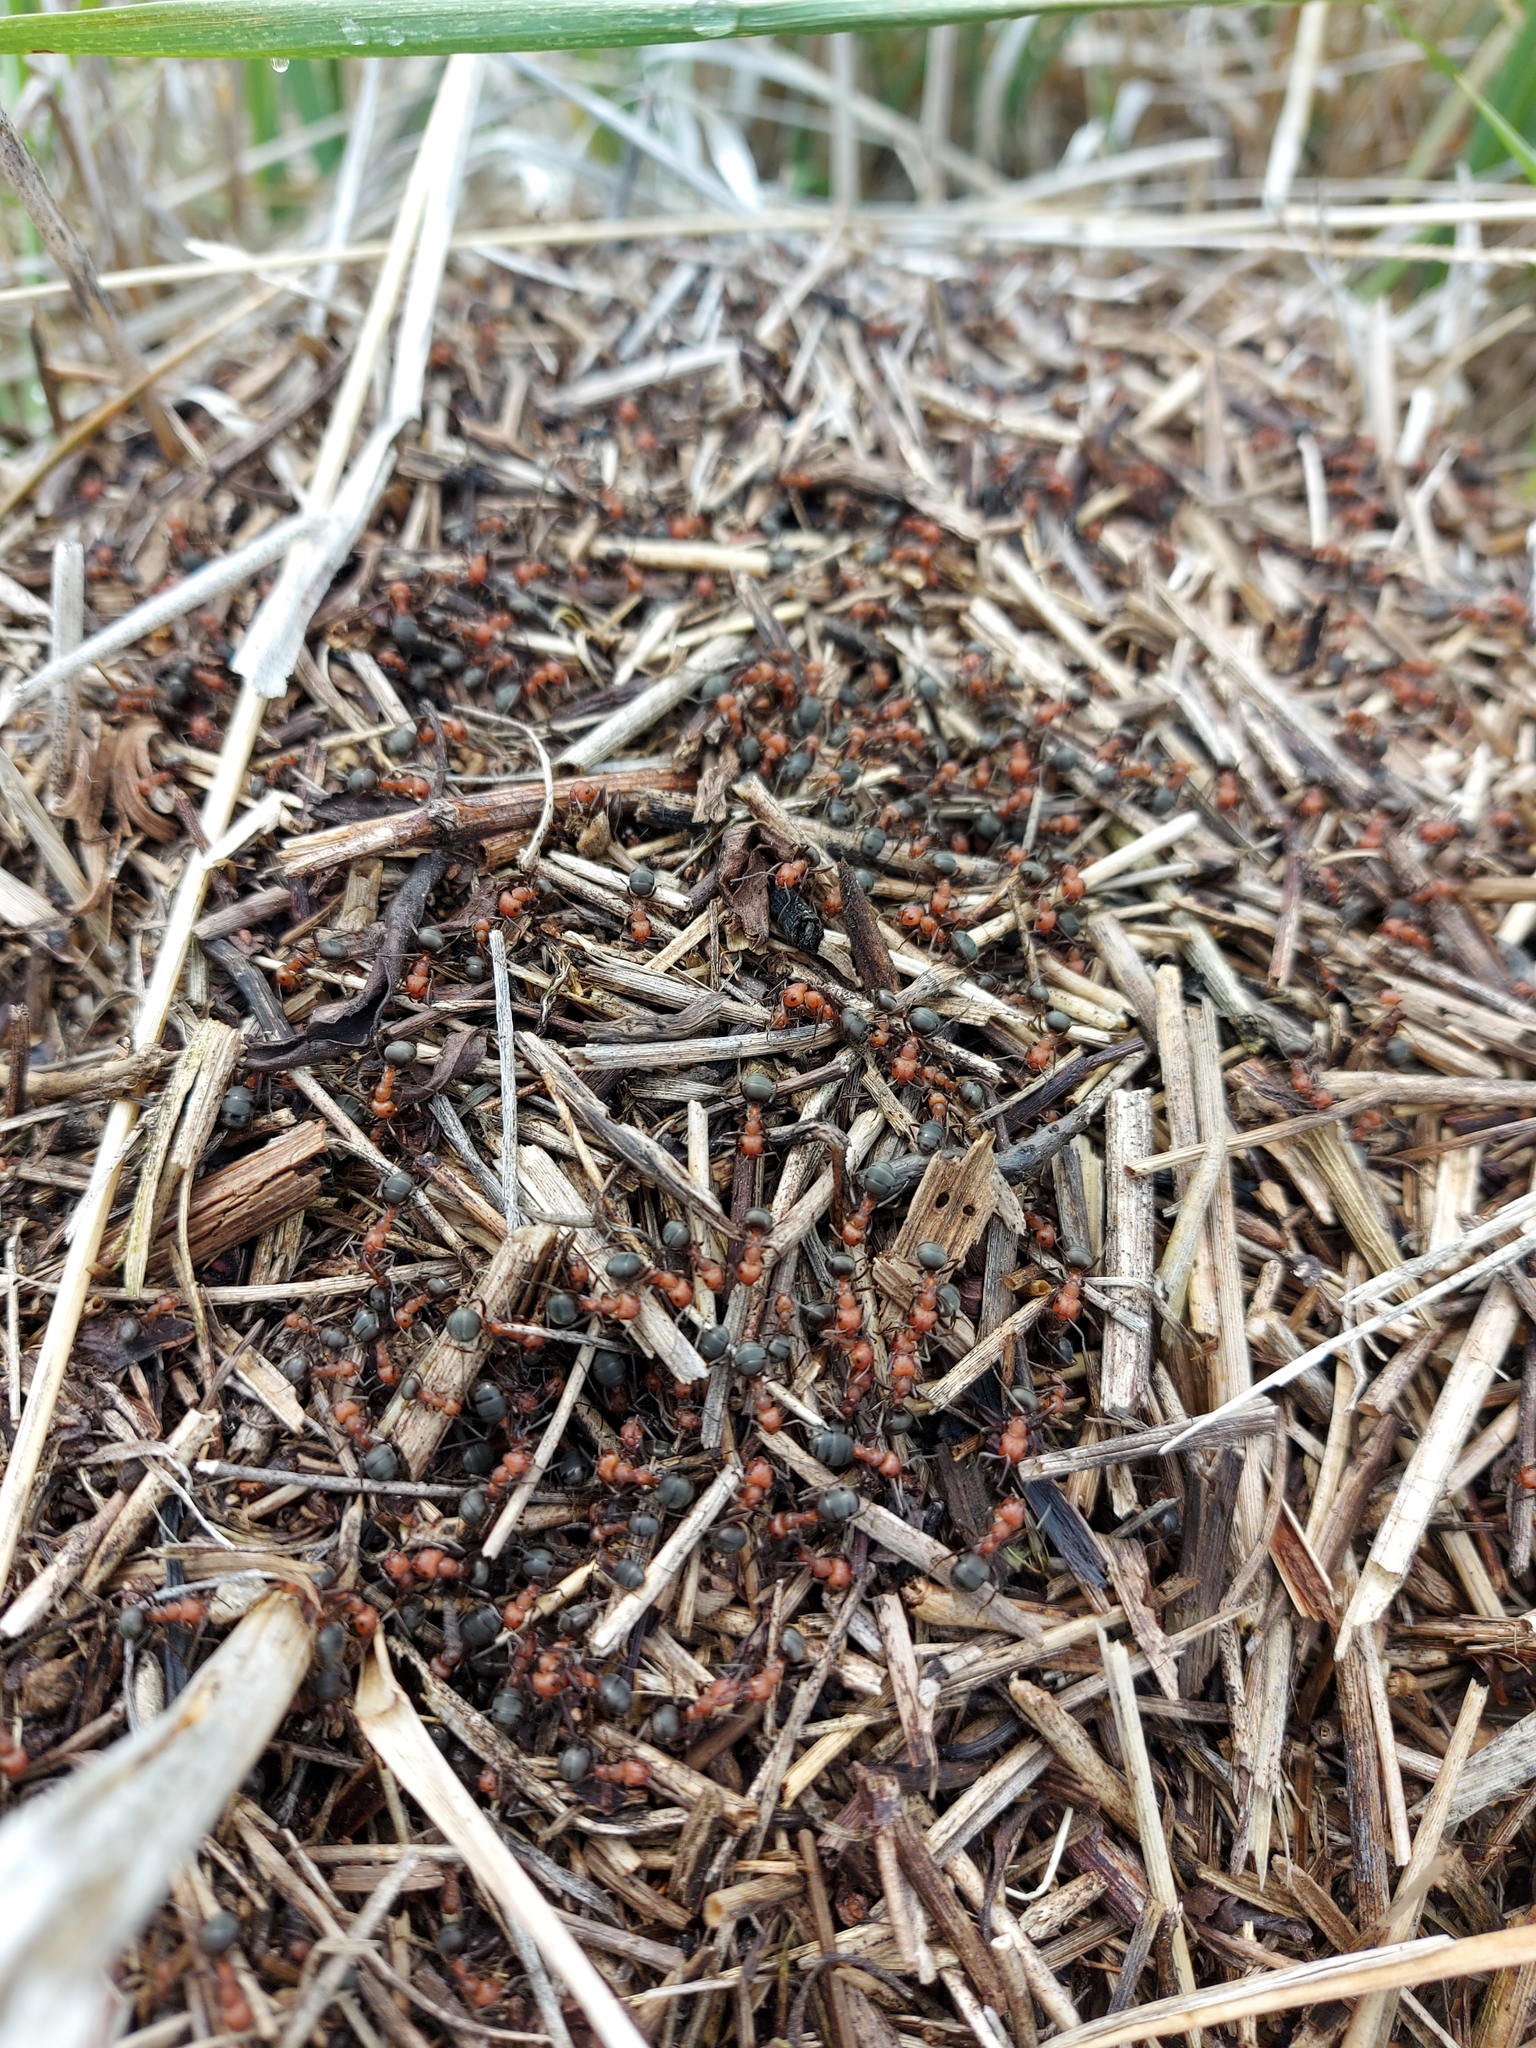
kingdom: Animalia
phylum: Arthropoda
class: Insecta
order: Hymenoptera
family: Formicidae
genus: Formica
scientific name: Formica obscuripes
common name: Western thatching ant
